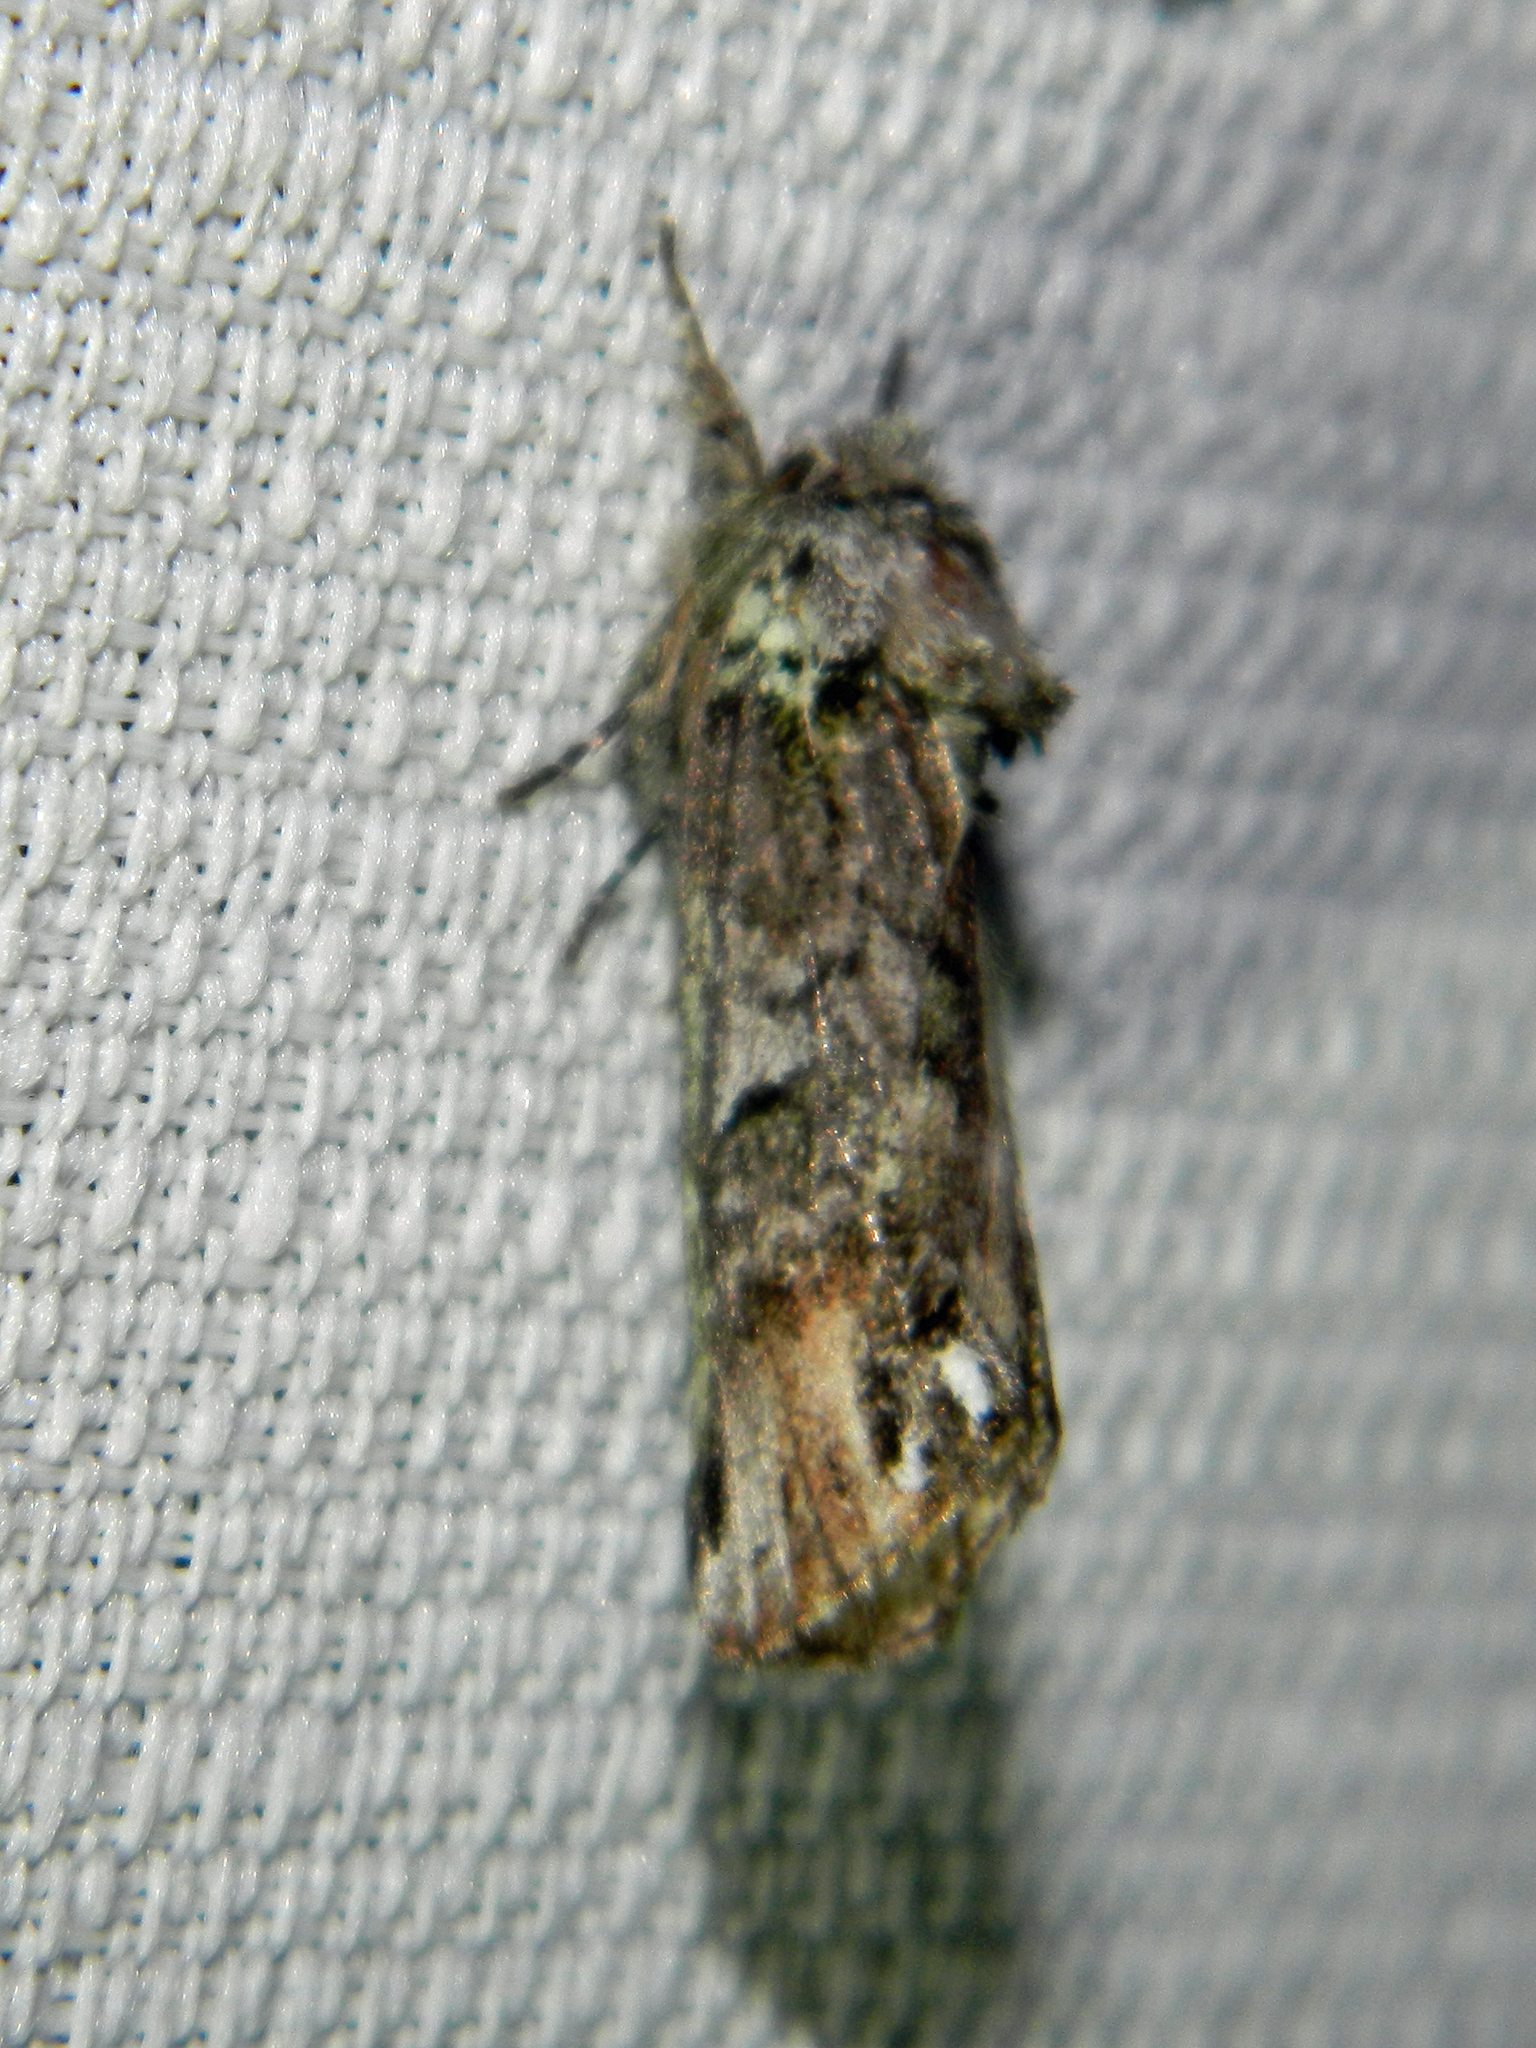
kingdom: Animalia
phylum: Arthropoda
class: Insecta
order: Lepidoptera
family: Notodontidae
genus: Schizura
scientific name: Schizura
